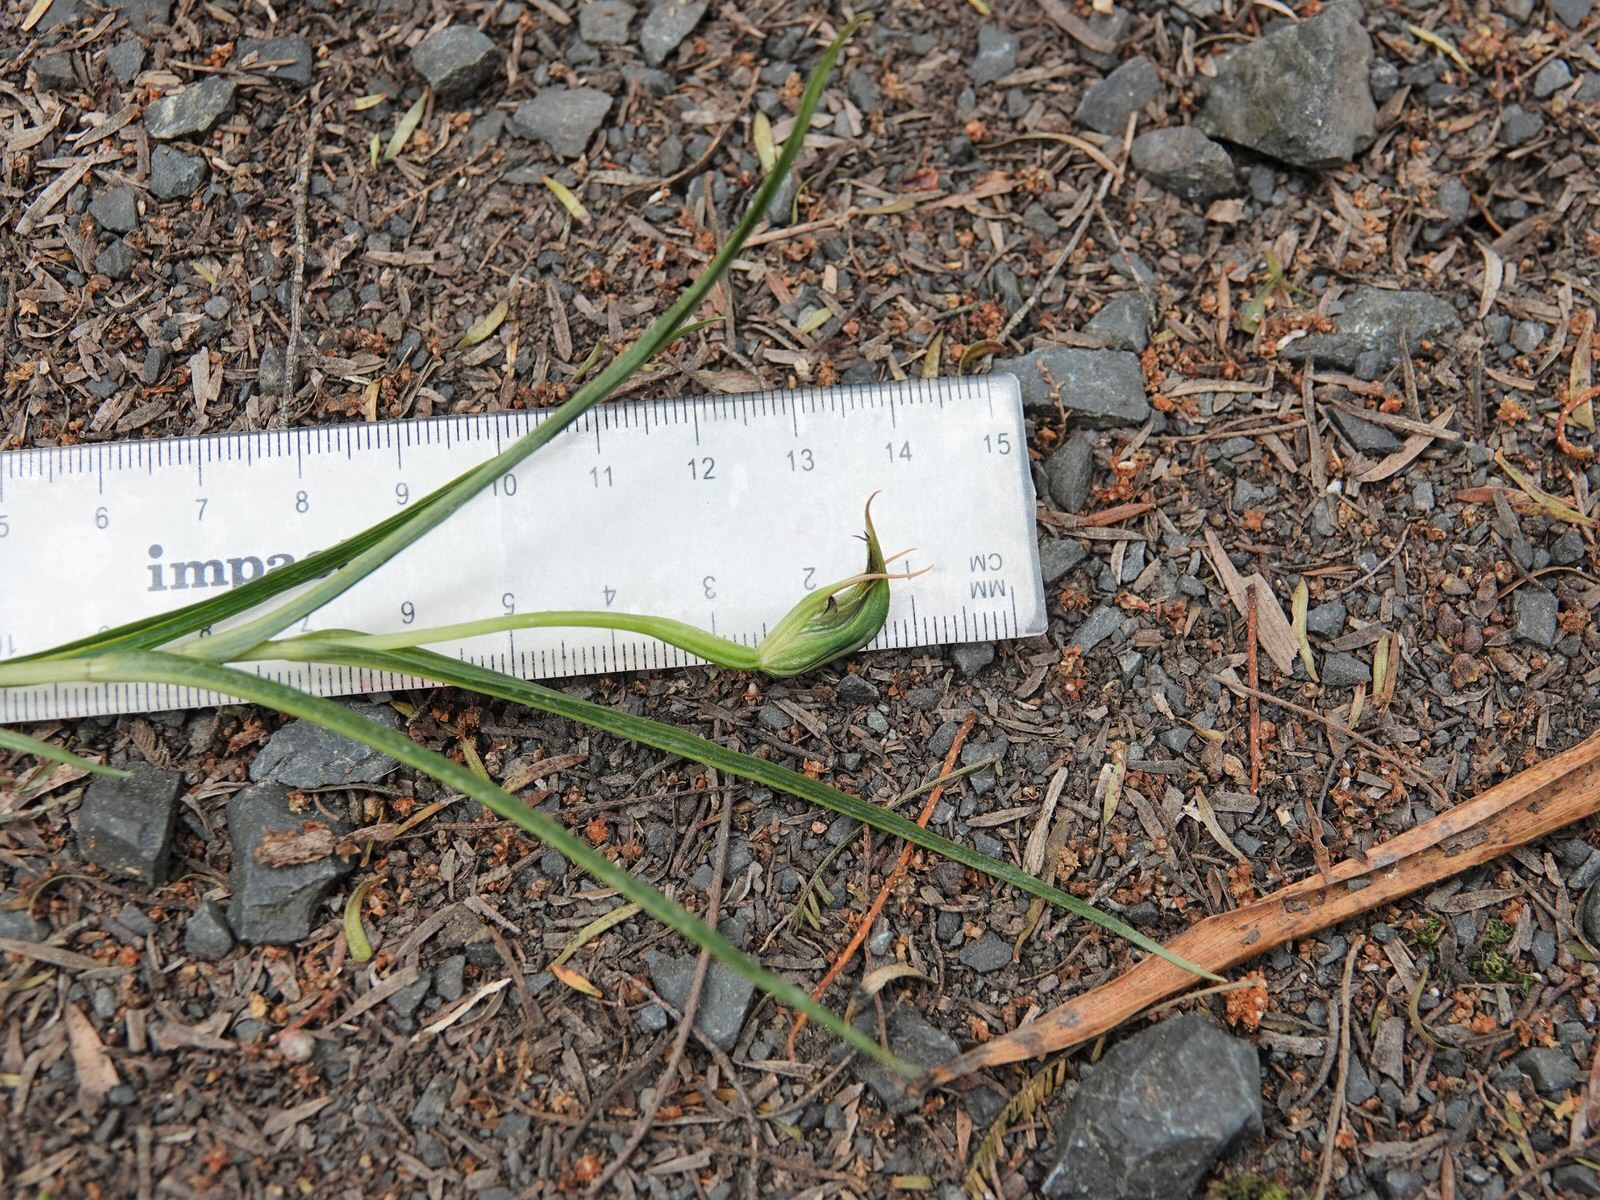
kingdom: Plantae
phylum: Tracheophyta
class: Liliopsida
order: Asparagales
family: Orchidaceae
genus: Pterostylis
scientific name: Pterostylis graminea
